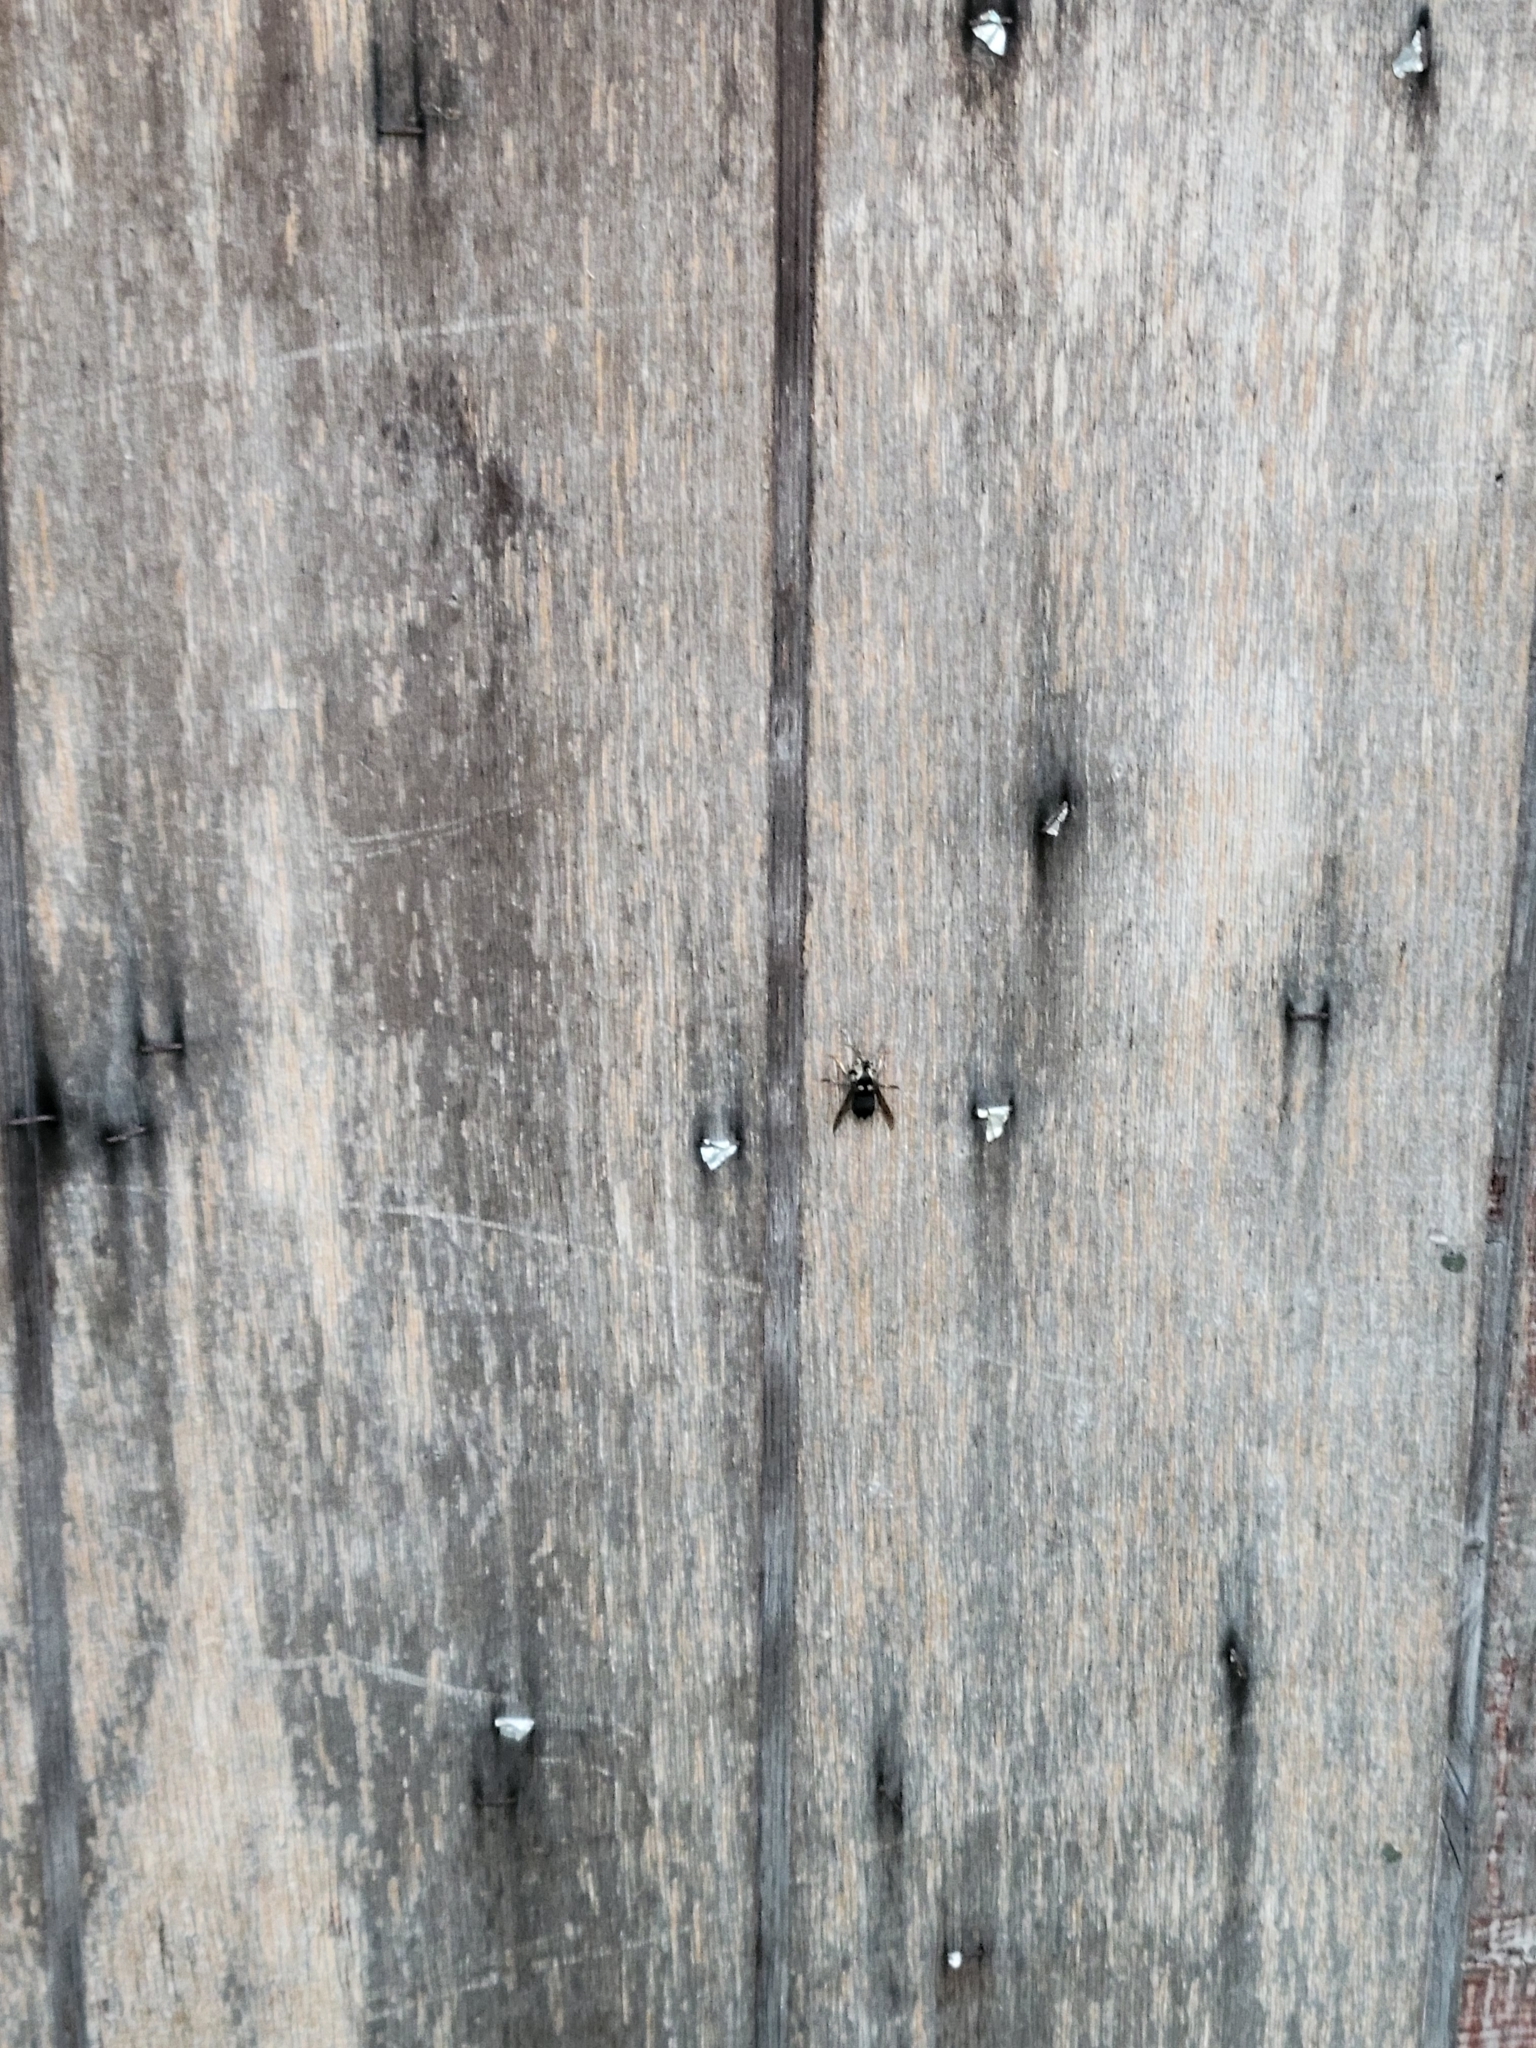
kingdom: Animalia
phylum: Arthropoda
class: Insecta
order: Hymenoptera
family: Vespidae
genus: Dolichovespula
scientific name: Dolichovespula maculata
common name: Bald-faced hornet
